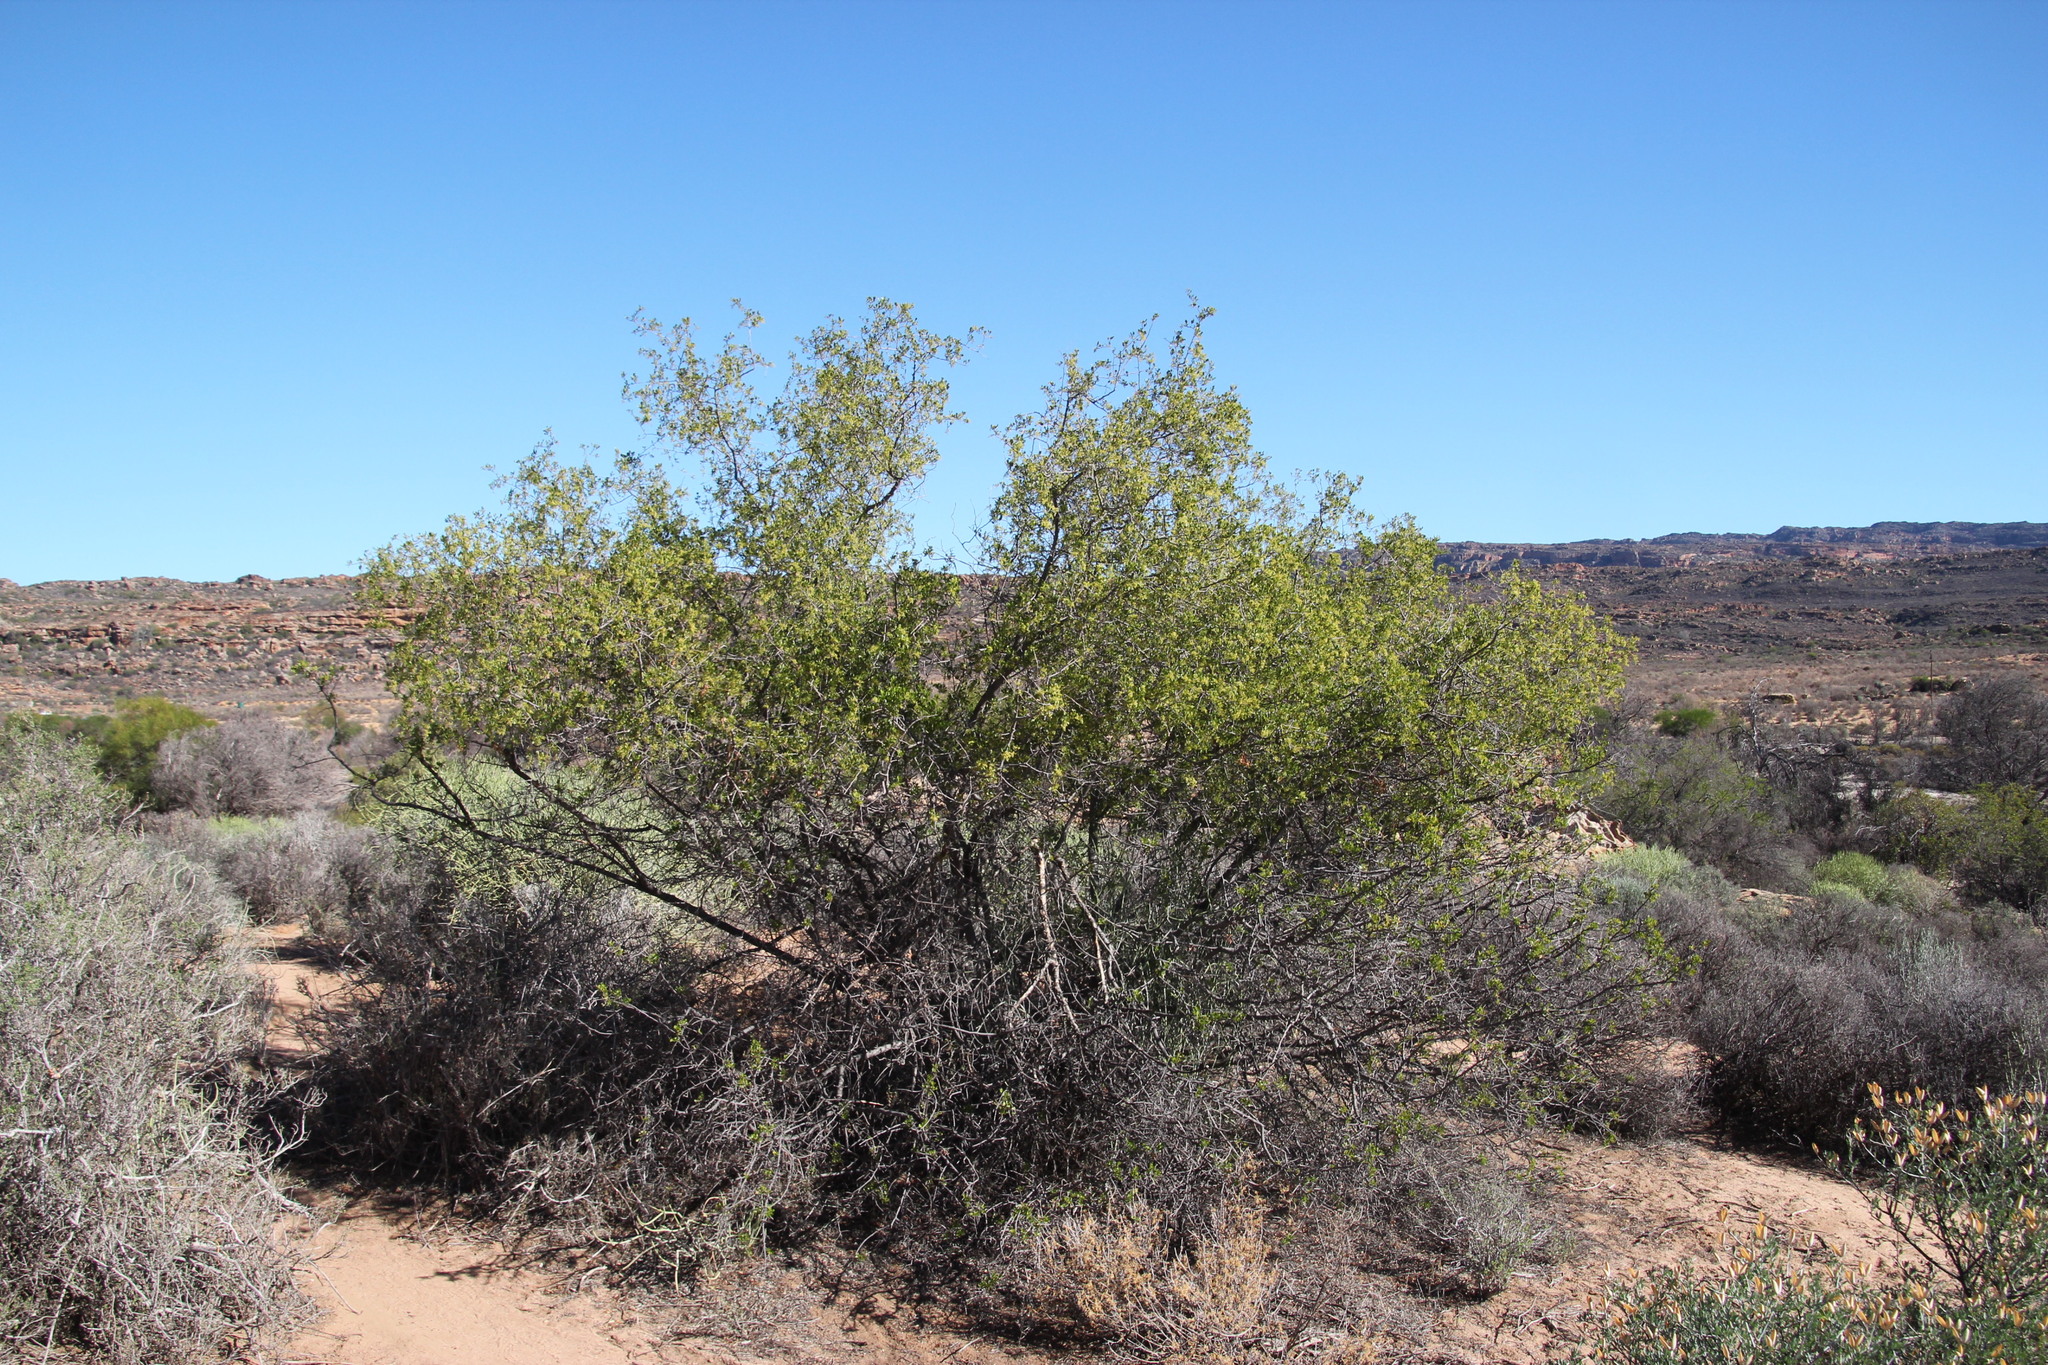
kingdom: Plantae
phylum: Tracheophyta
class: Magnoliopsida
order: Sapindales
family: Anacardiaceae
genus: Searsia
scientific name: Searsia undulata
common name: Namaqua kunibush
